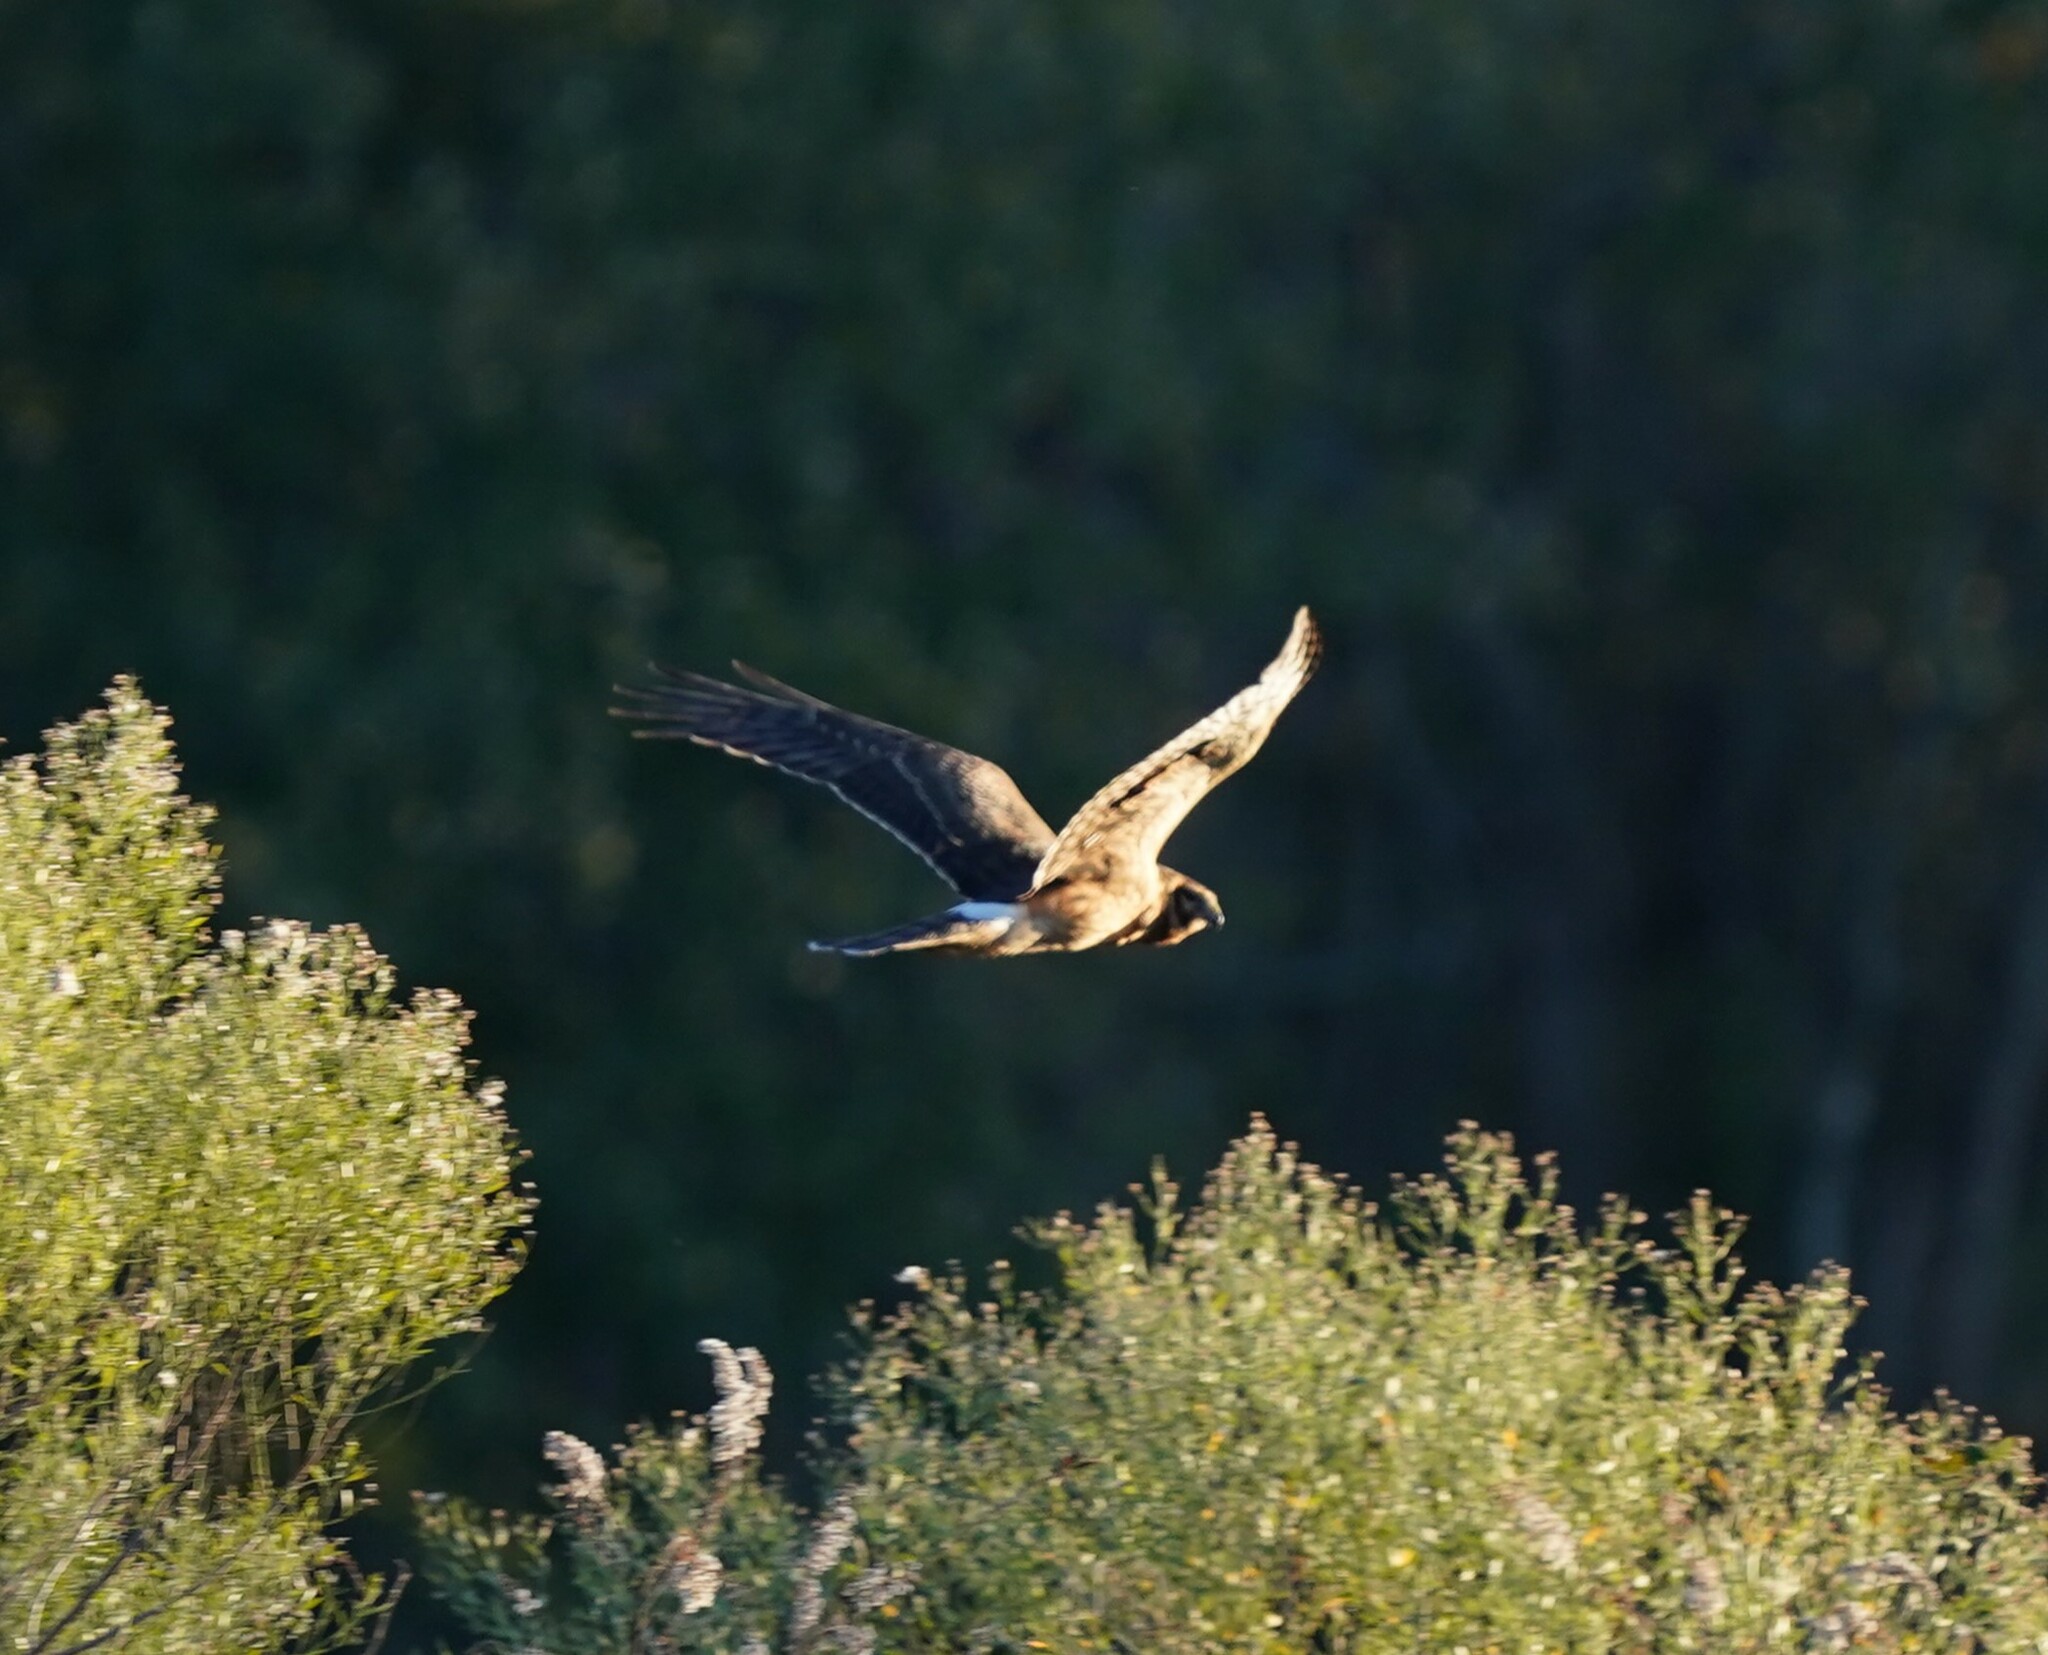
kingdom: Animalia
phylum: Chordata
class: Aves
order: Accipitriformes
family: Accipitridae
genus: Circus
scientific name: Circus cyaneus
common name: Hen harrier
